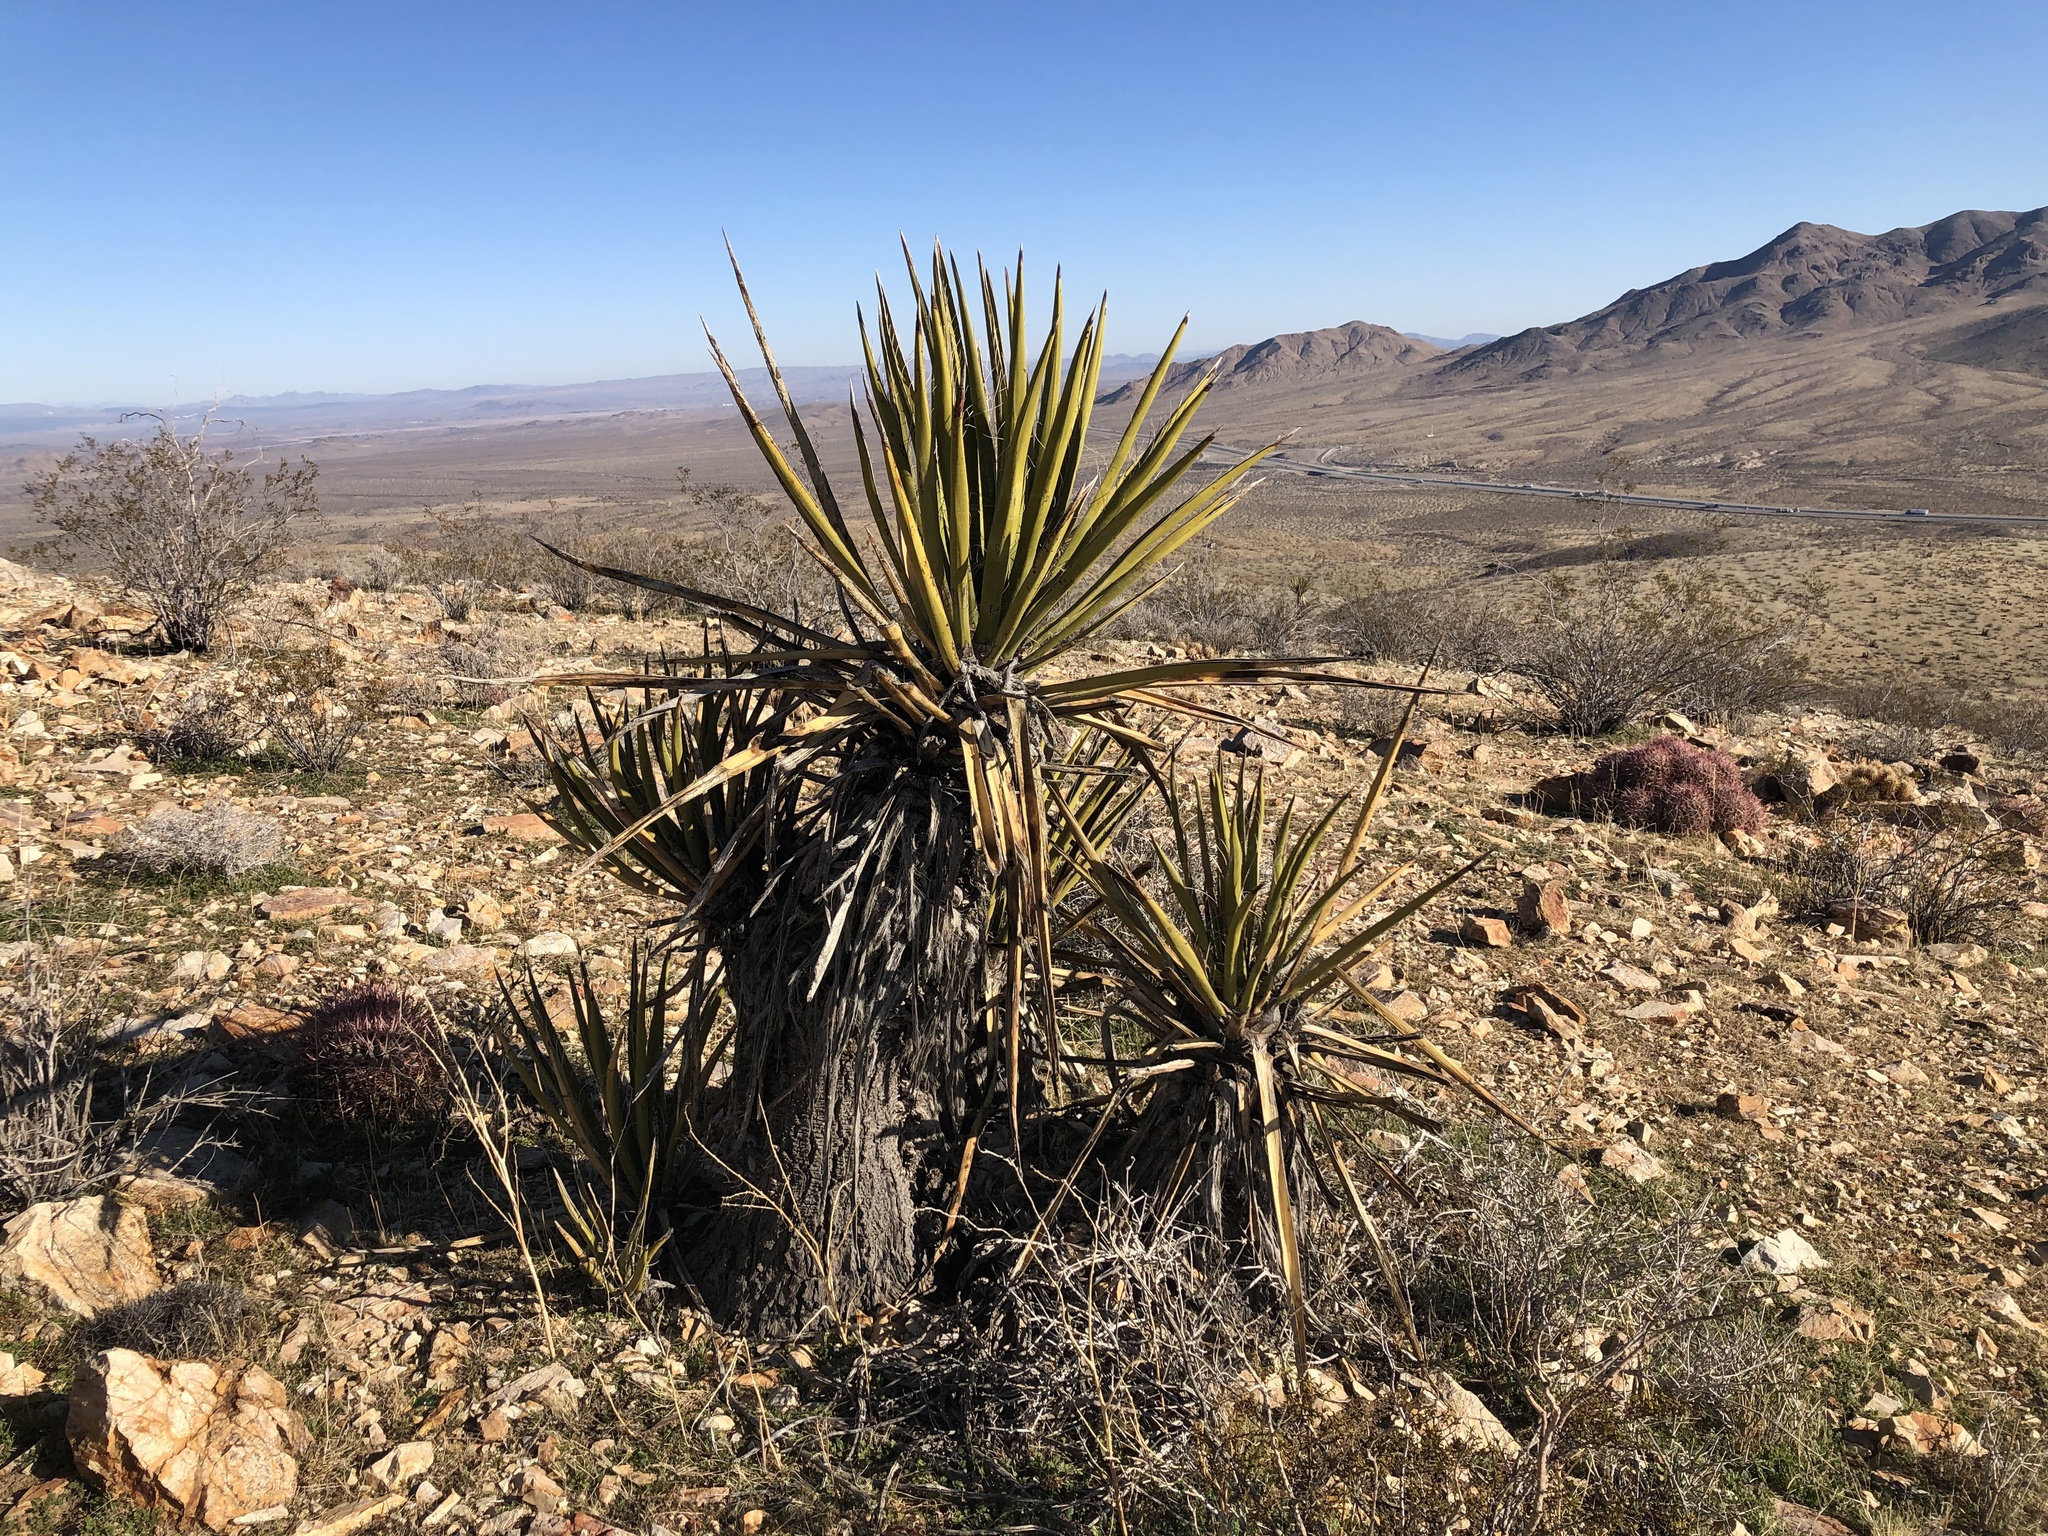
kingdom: Plantae
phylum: Tracheophyta
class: Liliopsida
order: Asparagales
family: Asparagaceae
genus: Yucca
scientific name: Yucca schidigera
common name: Mojave yucca
